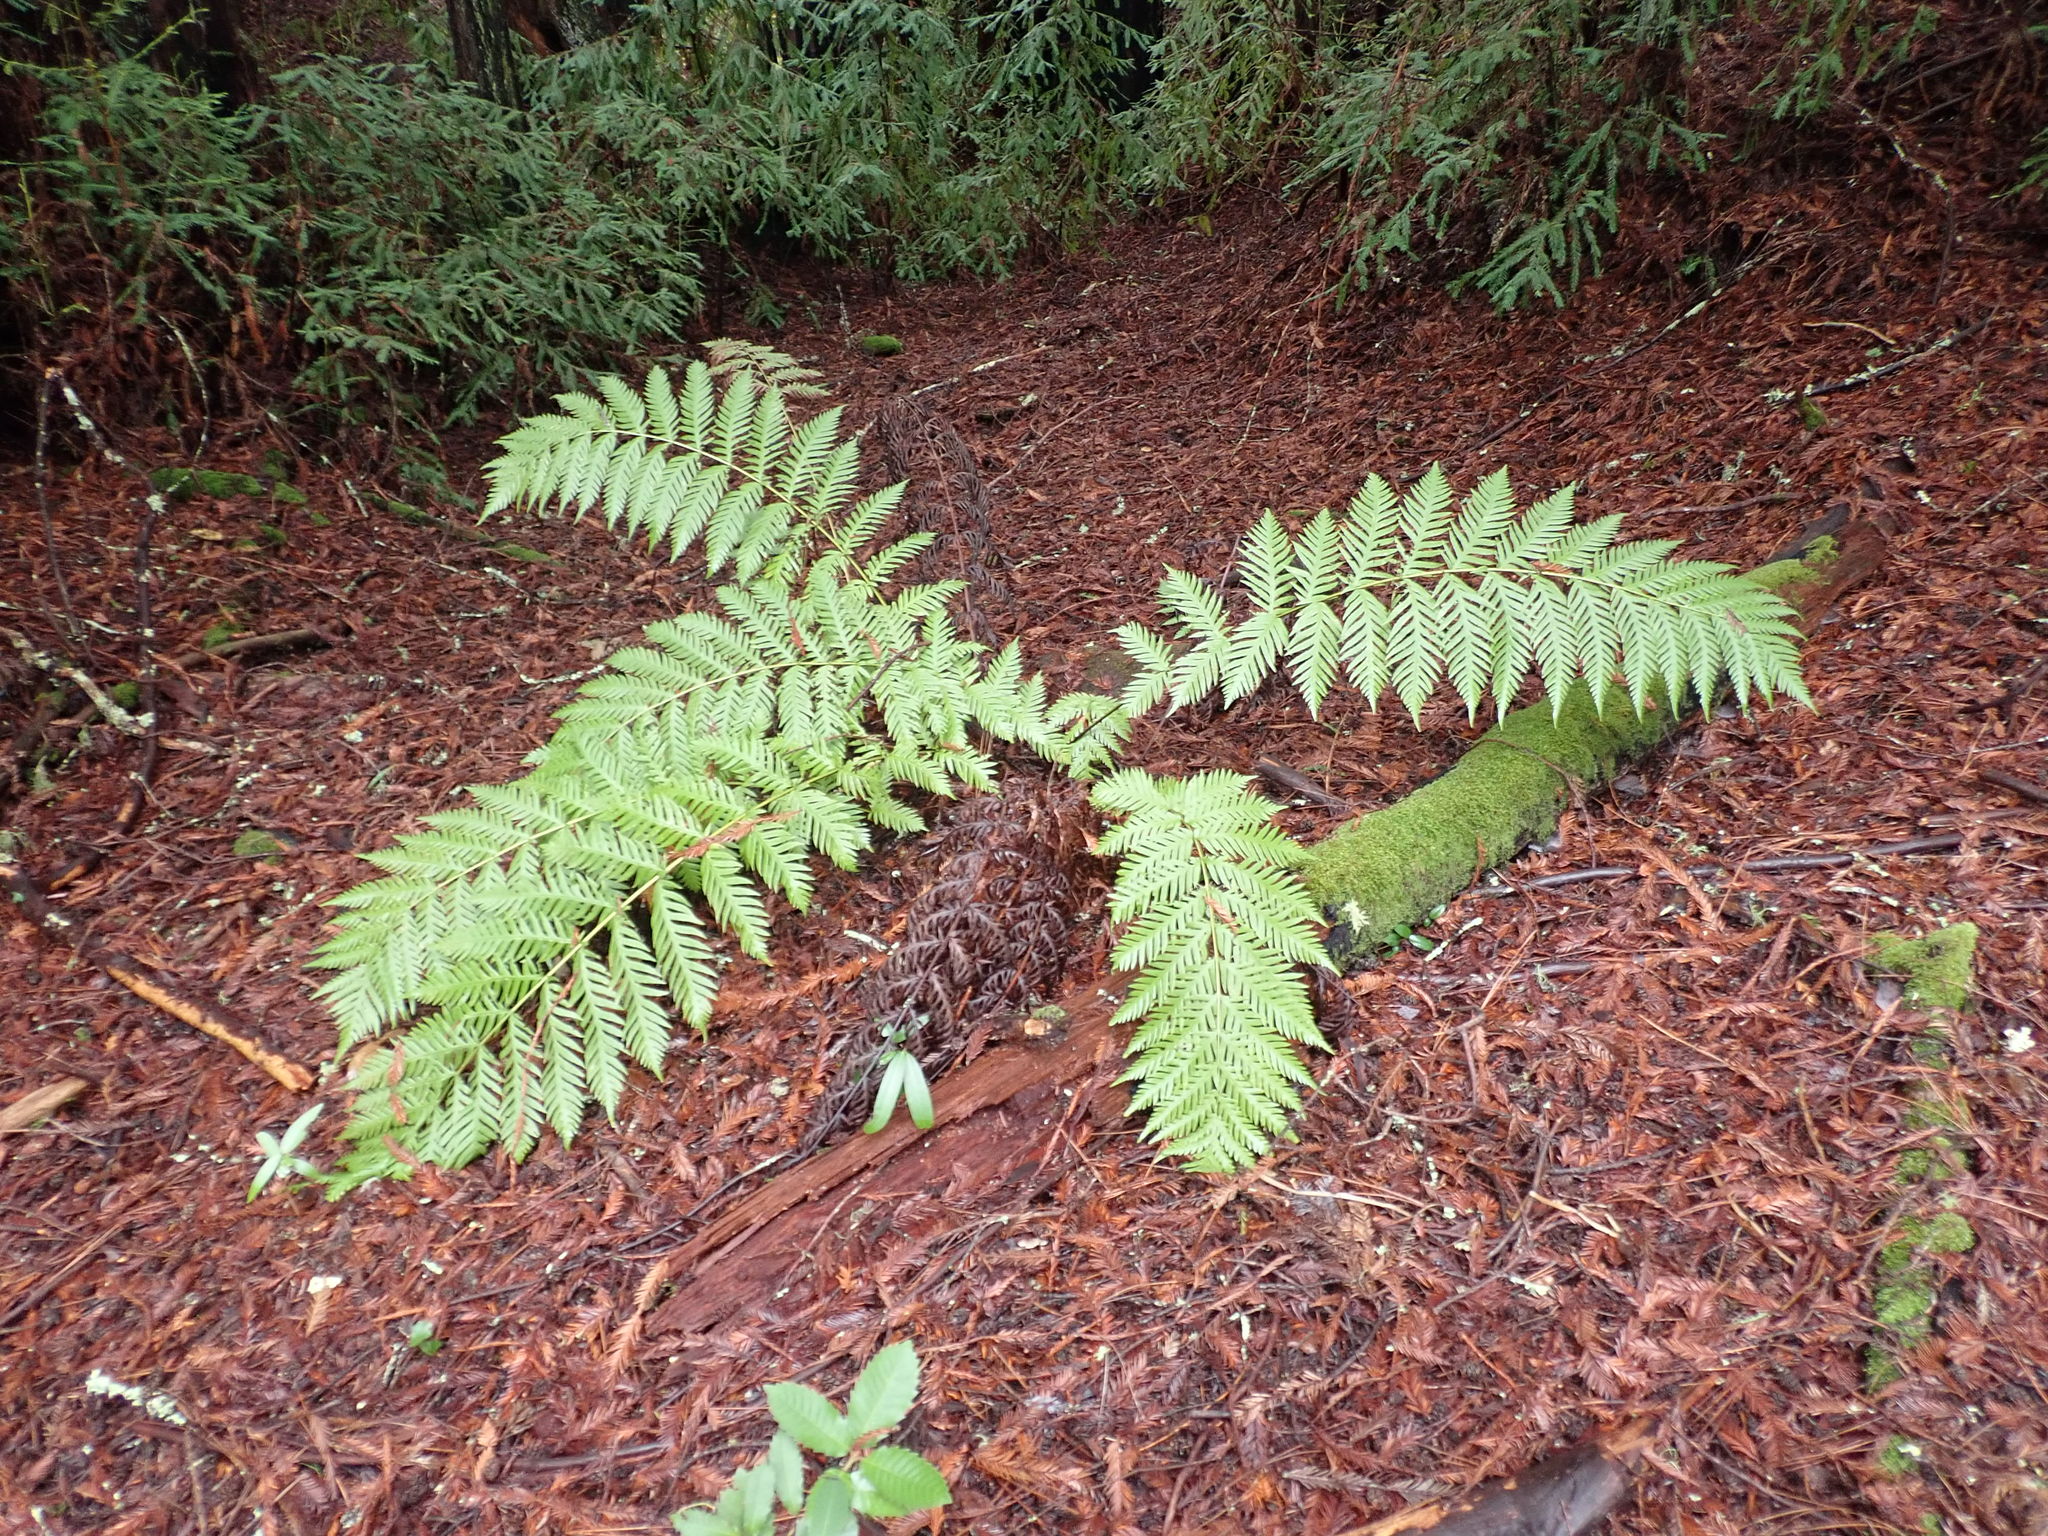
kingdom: Plantae
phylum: Tracheophyta
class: Polypodiopsida
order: Polypodiales
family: Blechnaceae
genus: Woodwardia
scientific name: Woodwardia fimbriata
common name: Giant chain fern
